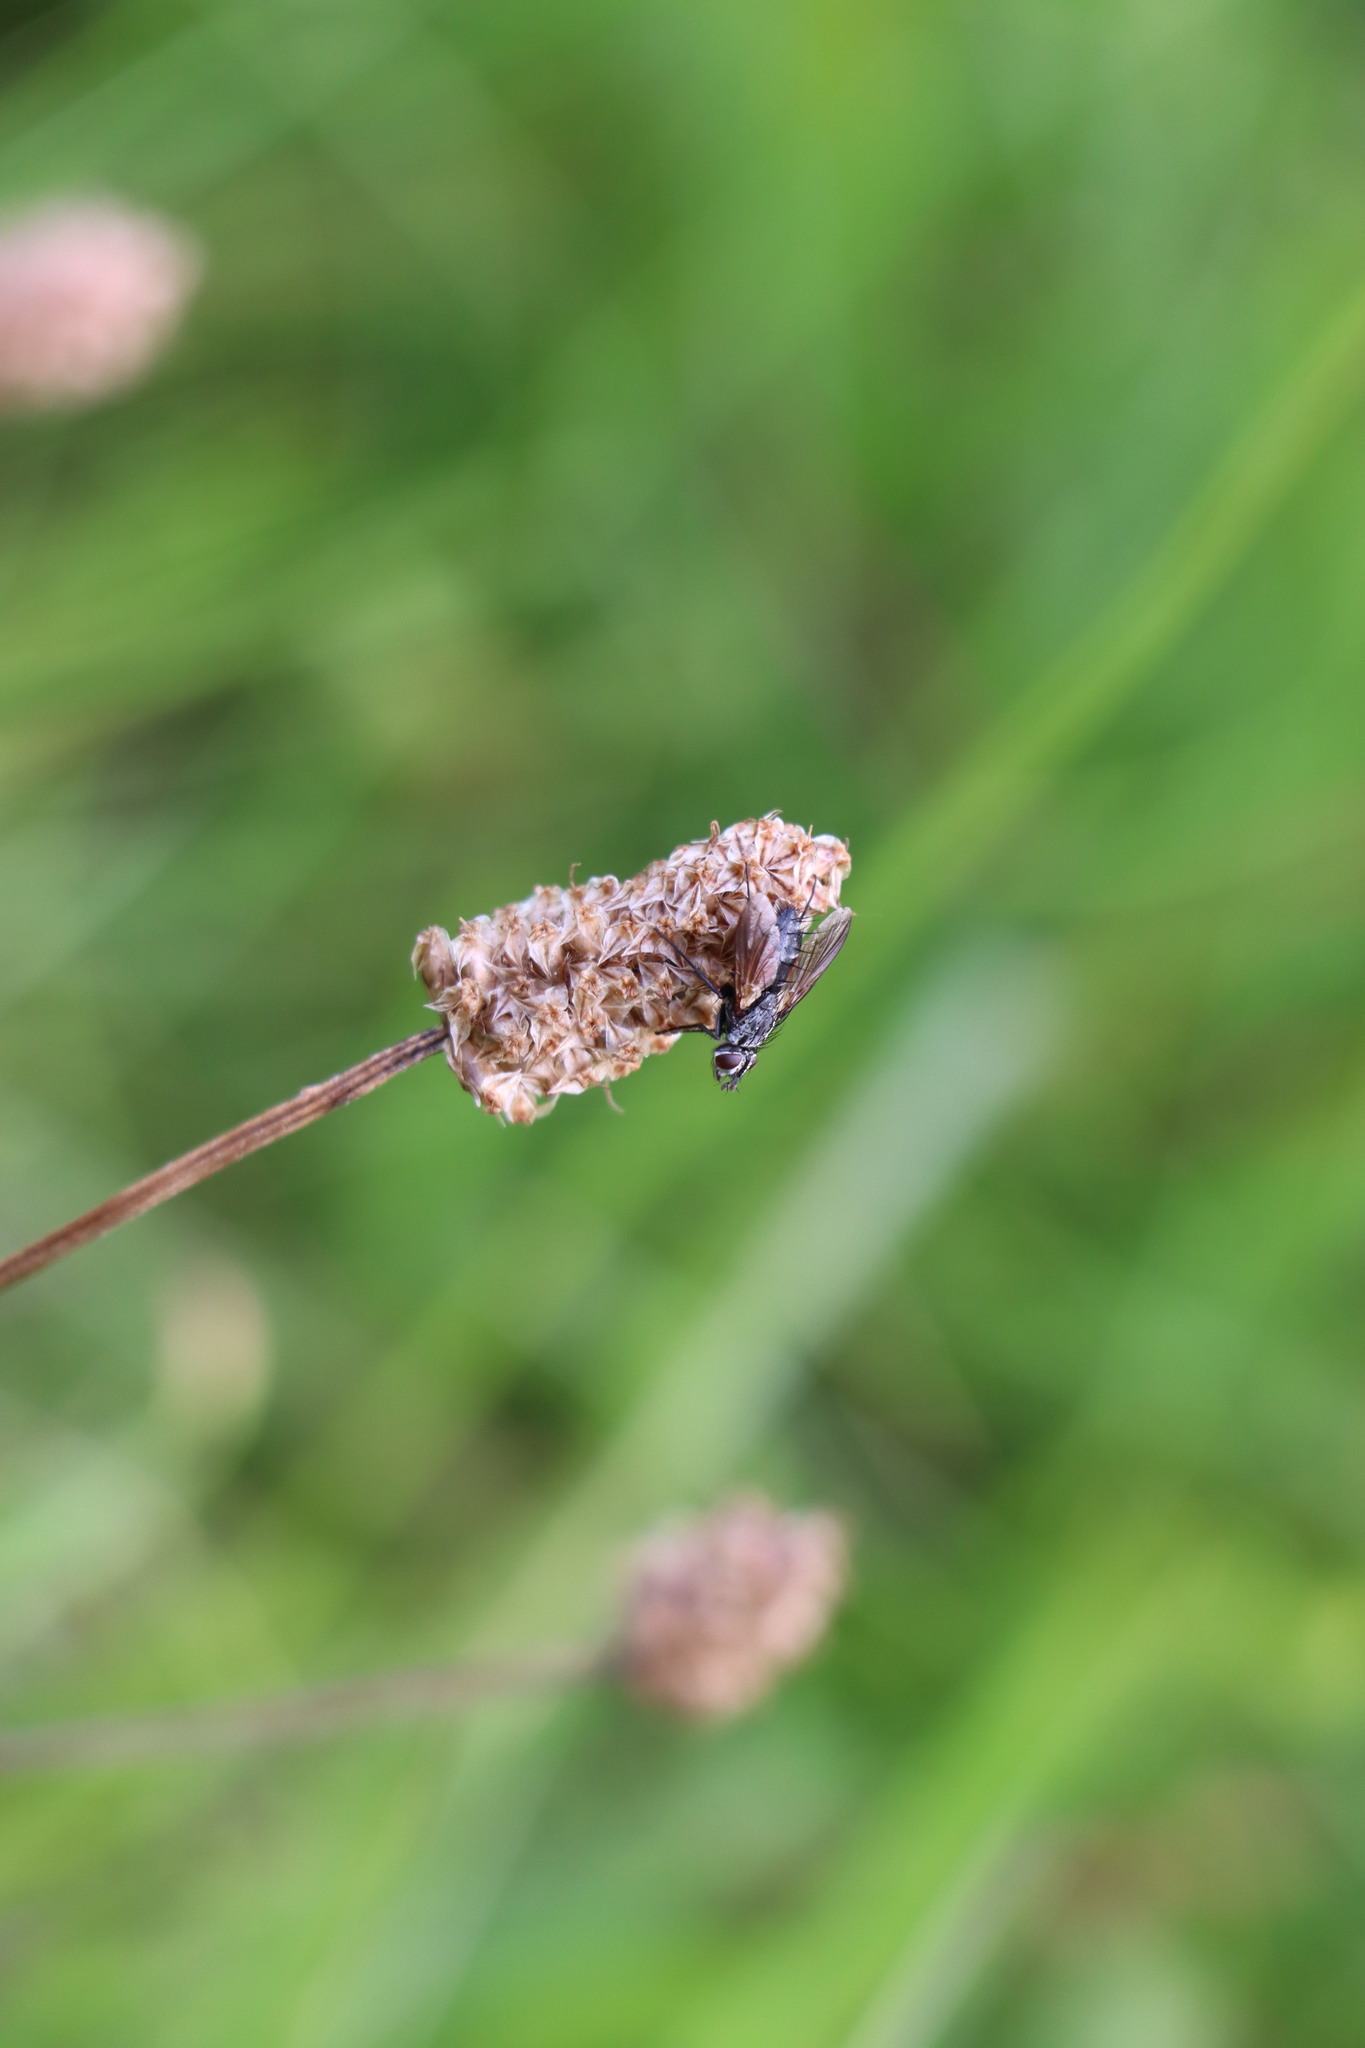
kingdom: Animalia
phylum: Arthropoda
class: Insecta
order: Diptera
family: Tachinidae
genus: Eriothrix
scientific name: Eriothrix rufomaculatus
